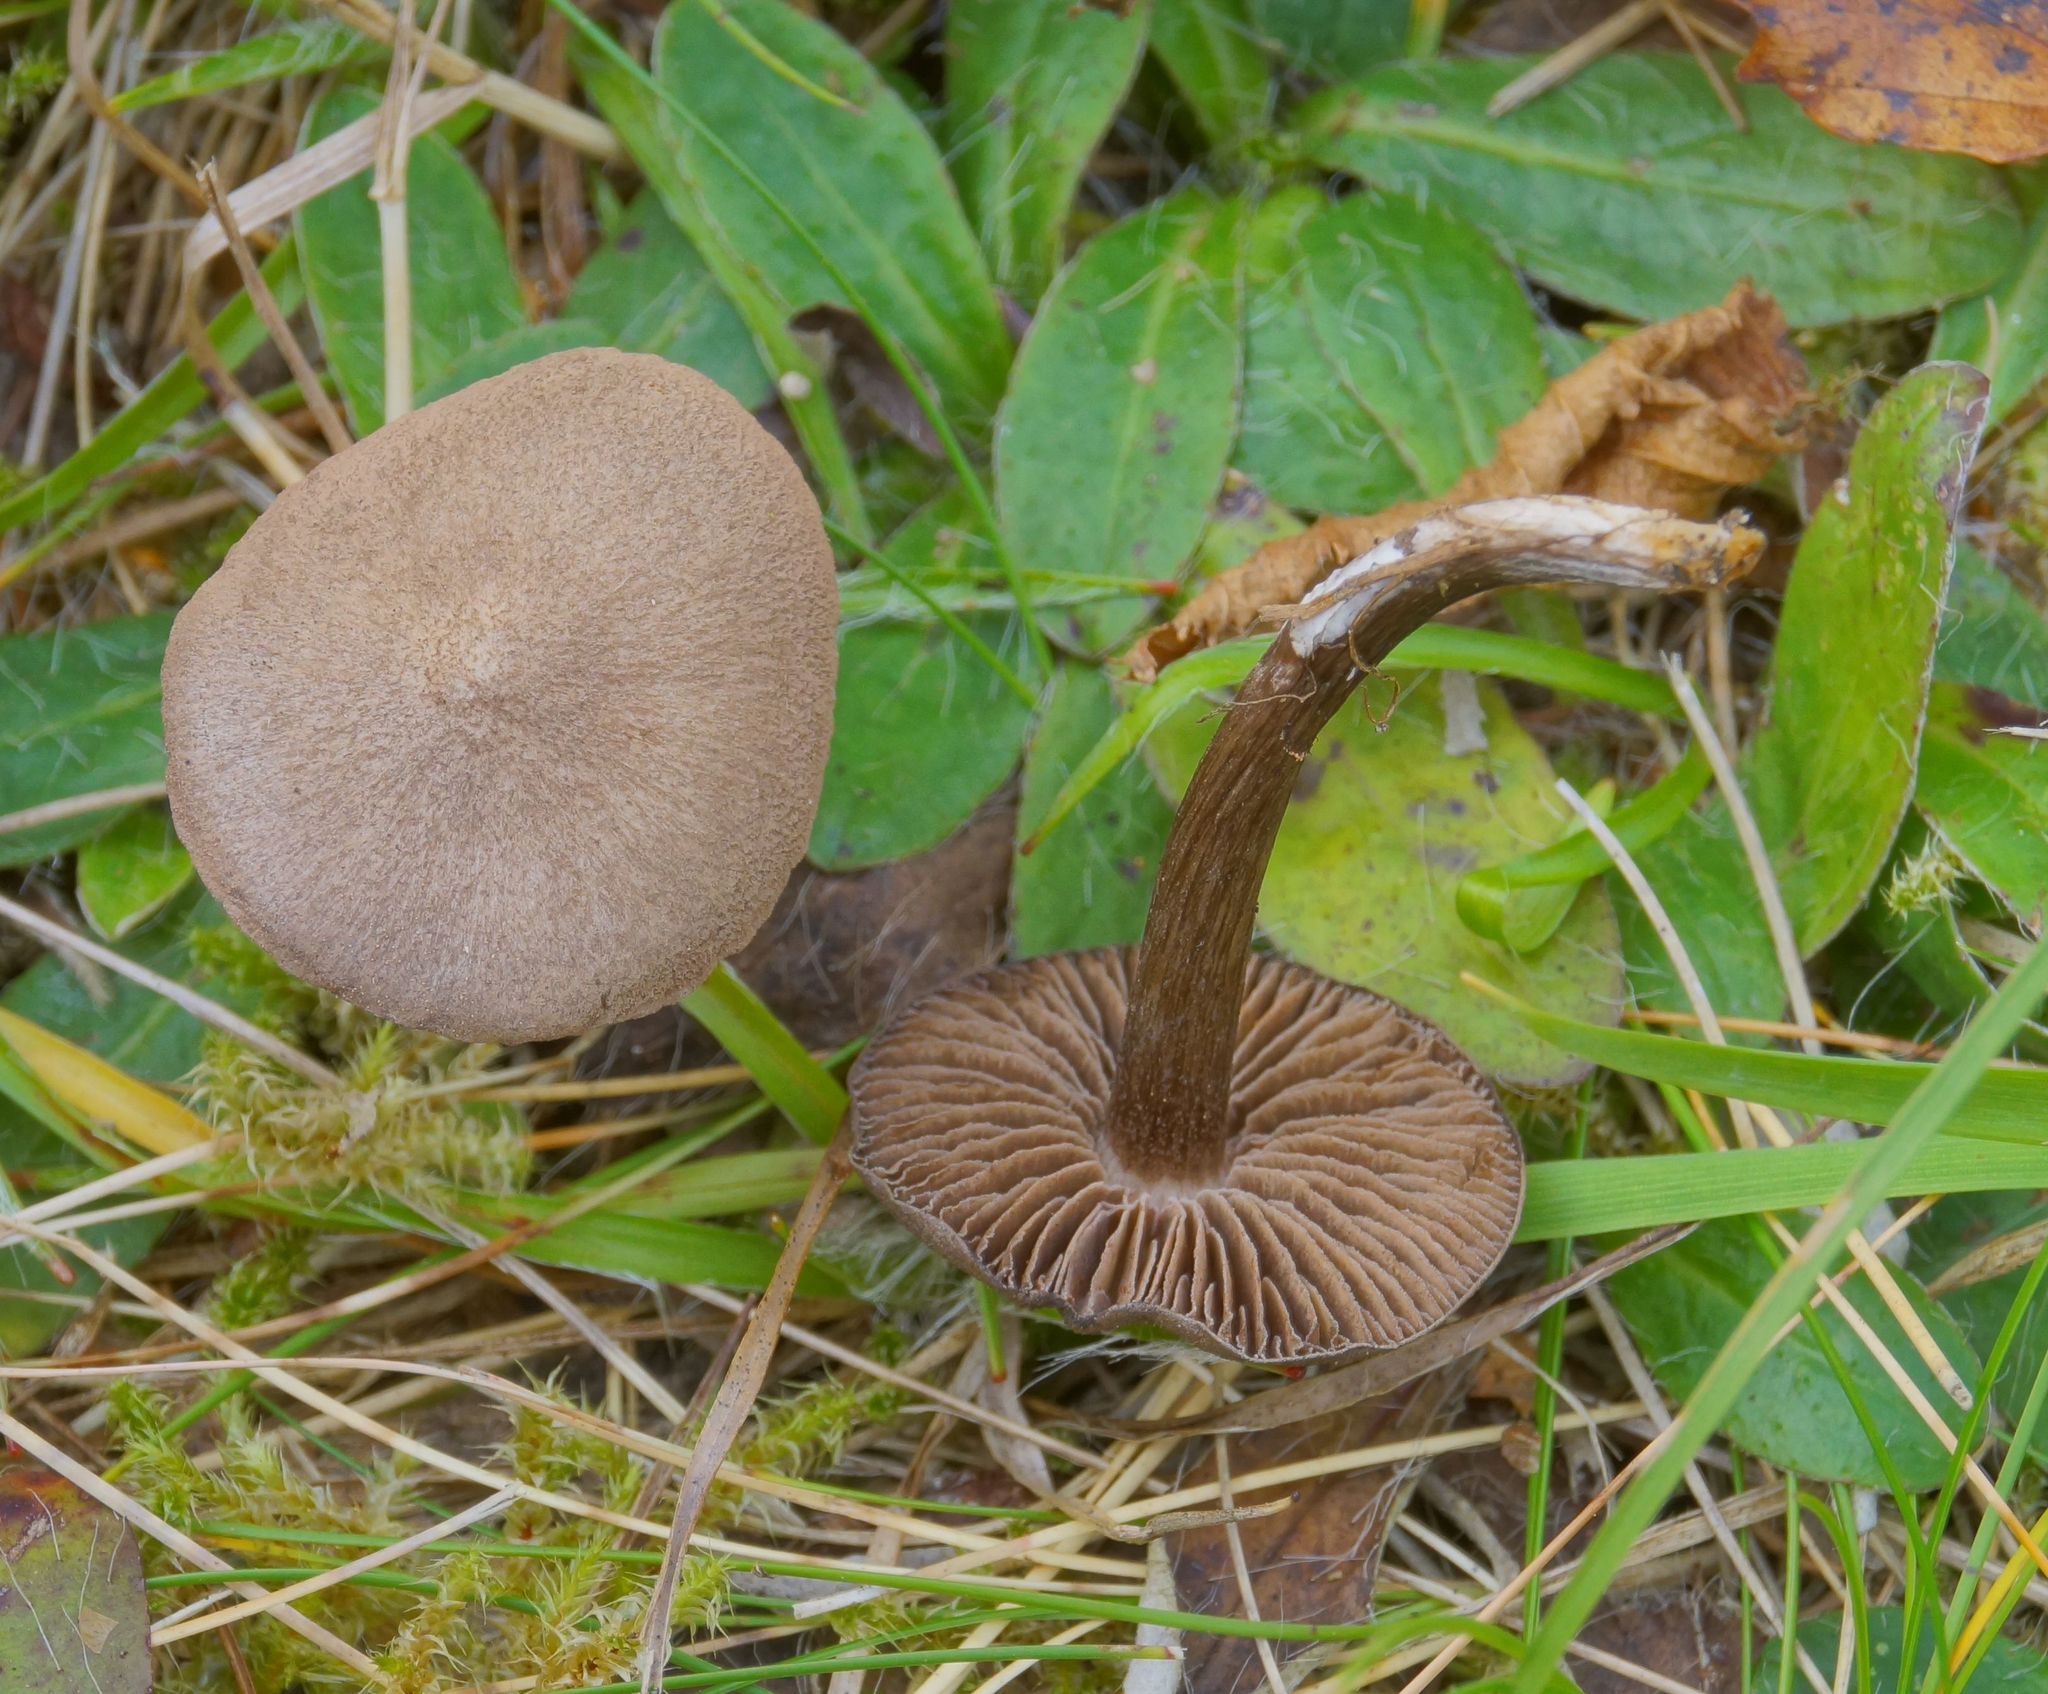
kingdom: Fungi
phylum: Basidiomycota
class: Agaricomycetes
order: Agaricales
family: Entolomataceae
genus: Entoloma
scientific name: Entoloma jubatum
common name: Sepia pinkgill
